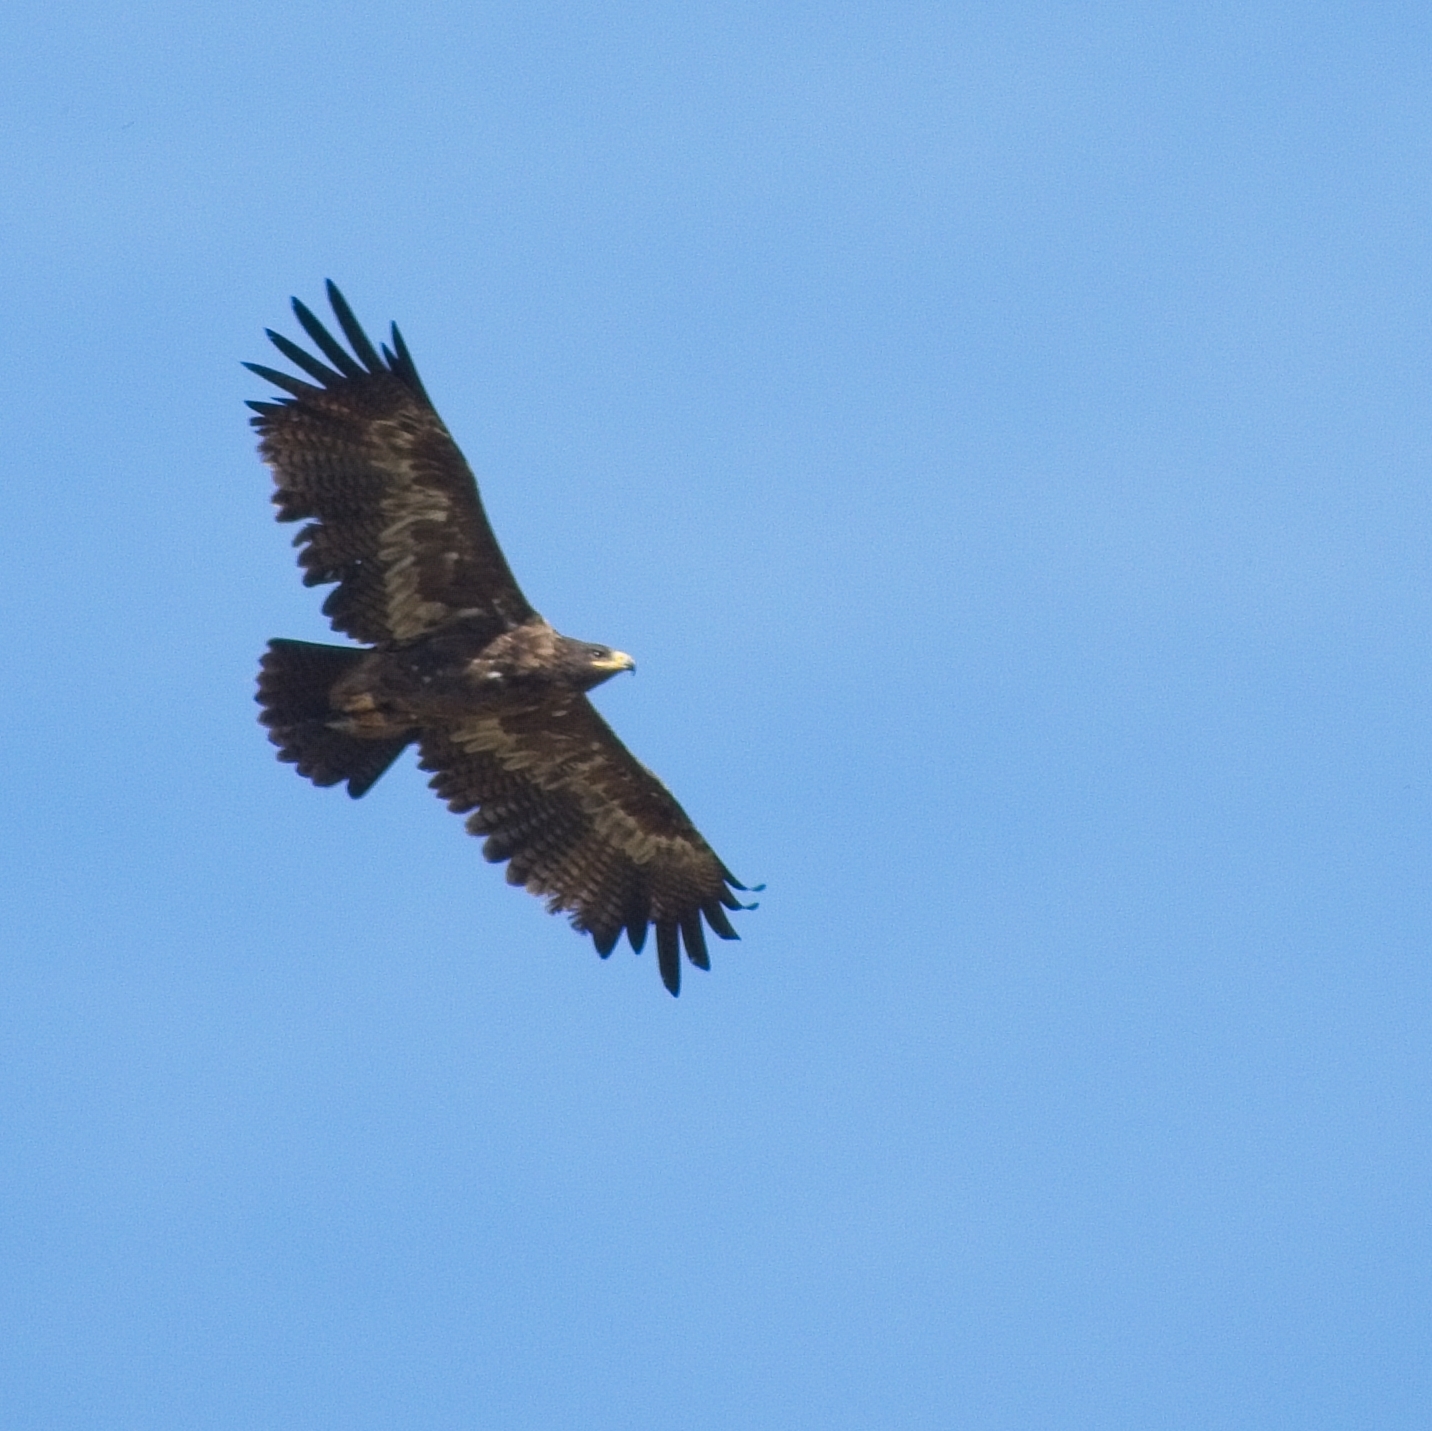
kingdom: Animalia
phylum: Chordata
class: Aves
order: Accipitriformes
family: Accipitridae
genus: Aquila
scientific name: Aquila nipalensis
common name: Steppe eagle
